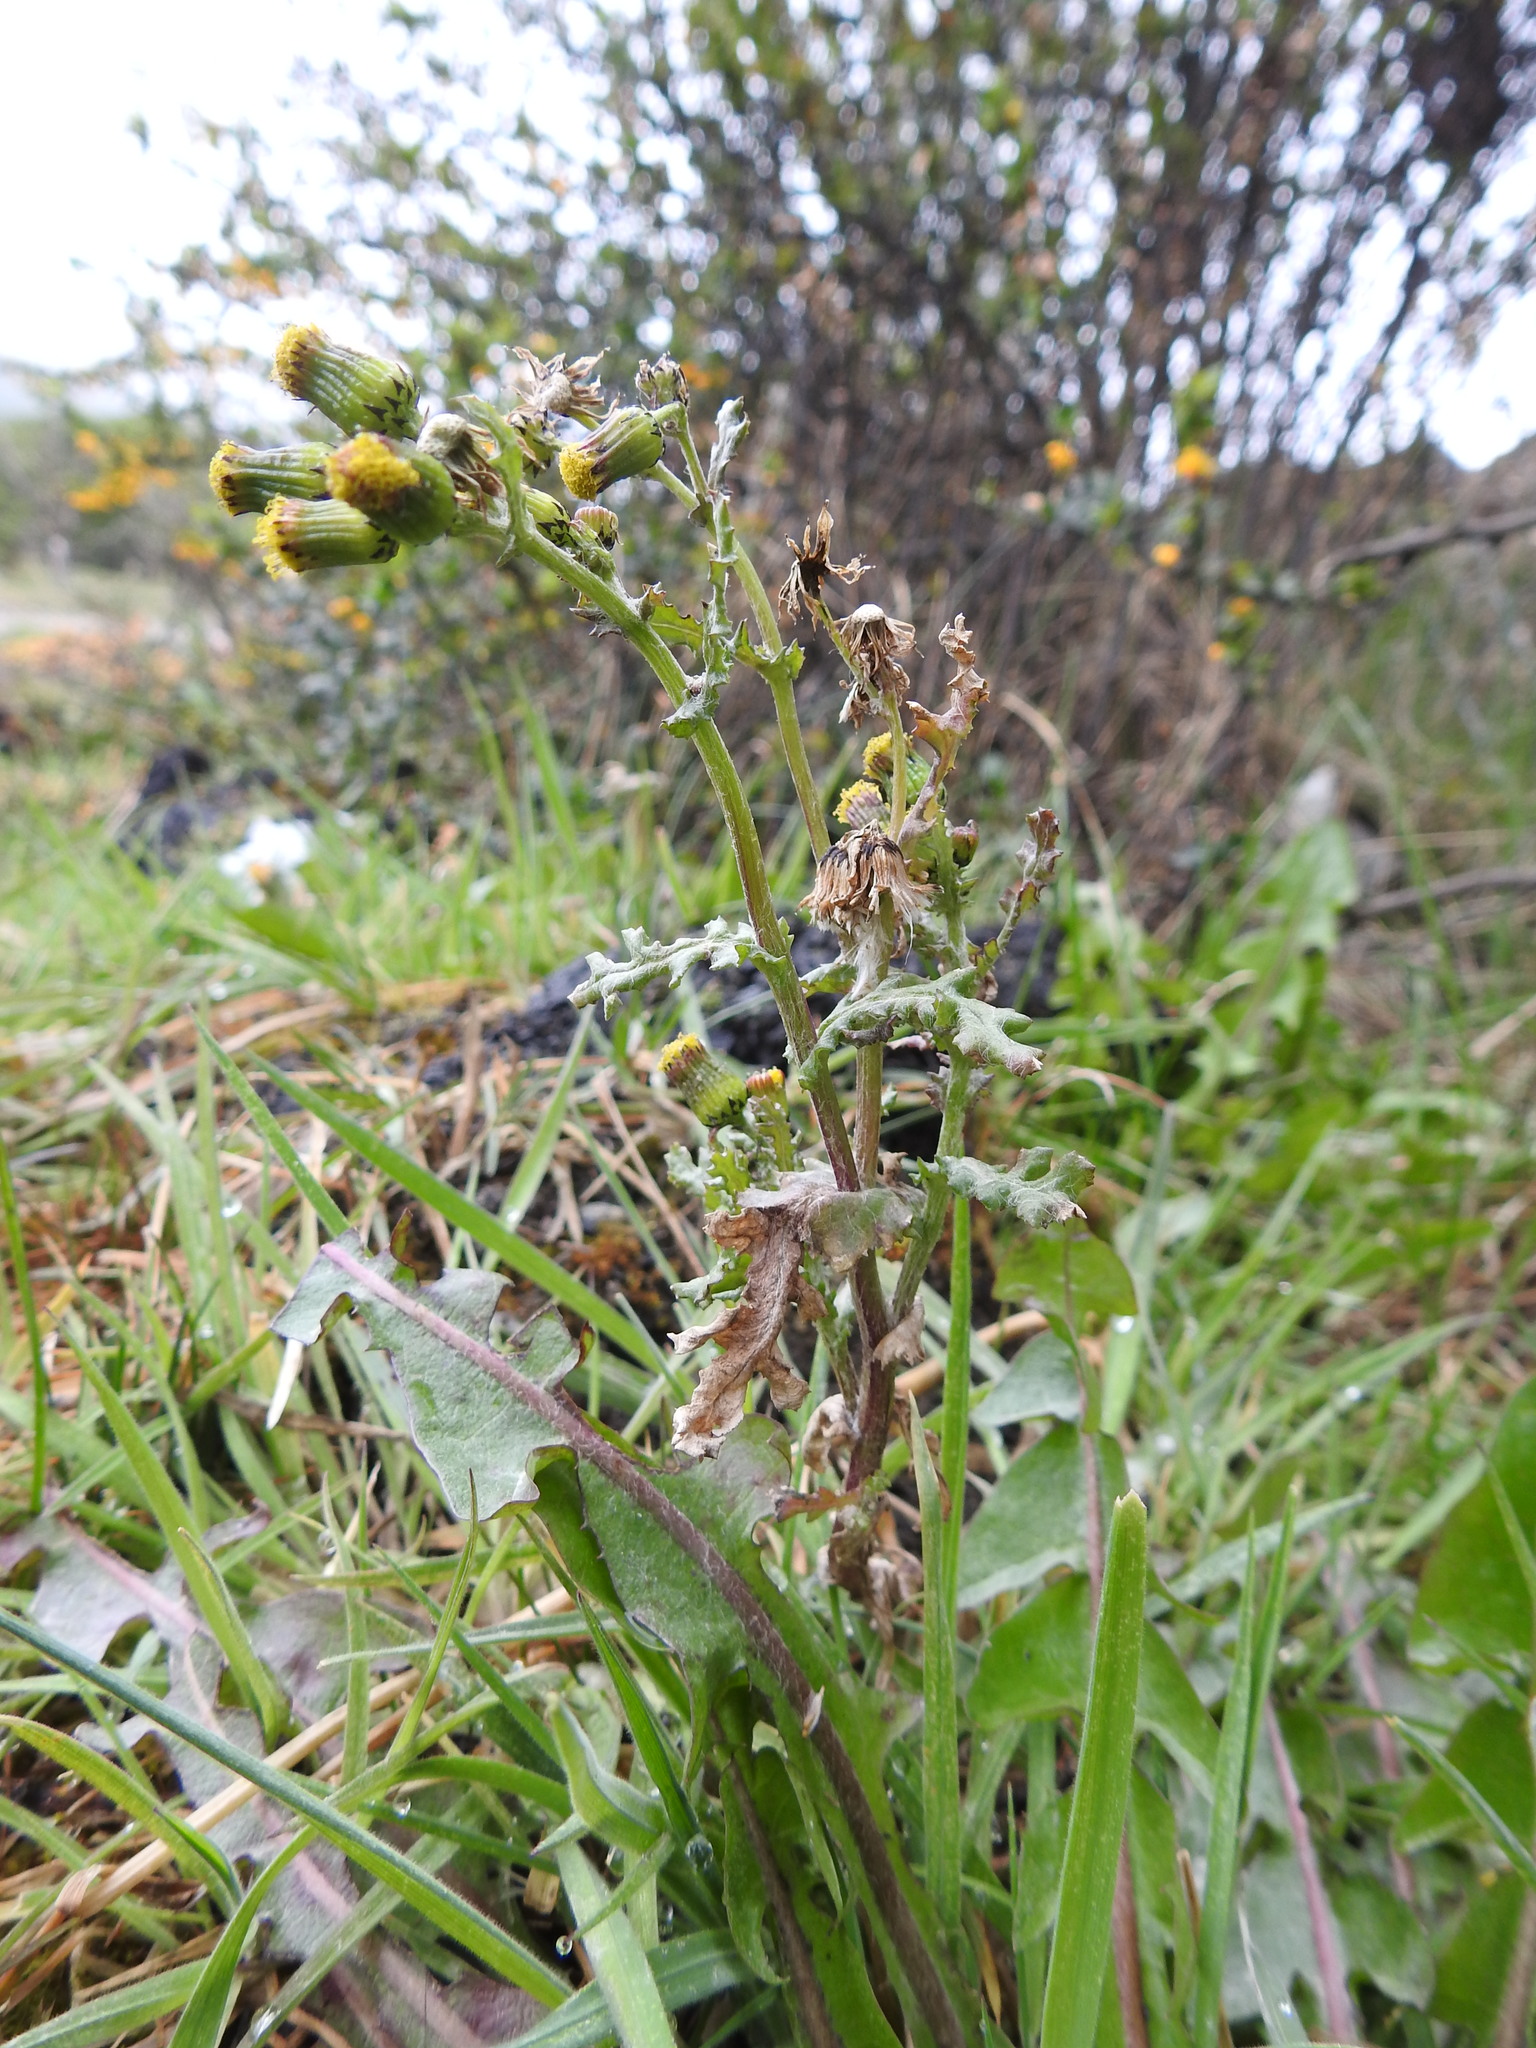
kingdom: Plantae
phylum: Tracheophyta
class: Magnoliopsida
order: Asterales
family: Asteraceae
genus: Senecio
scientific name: Senecio vulgaris
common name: Old-man-in-the-spring
